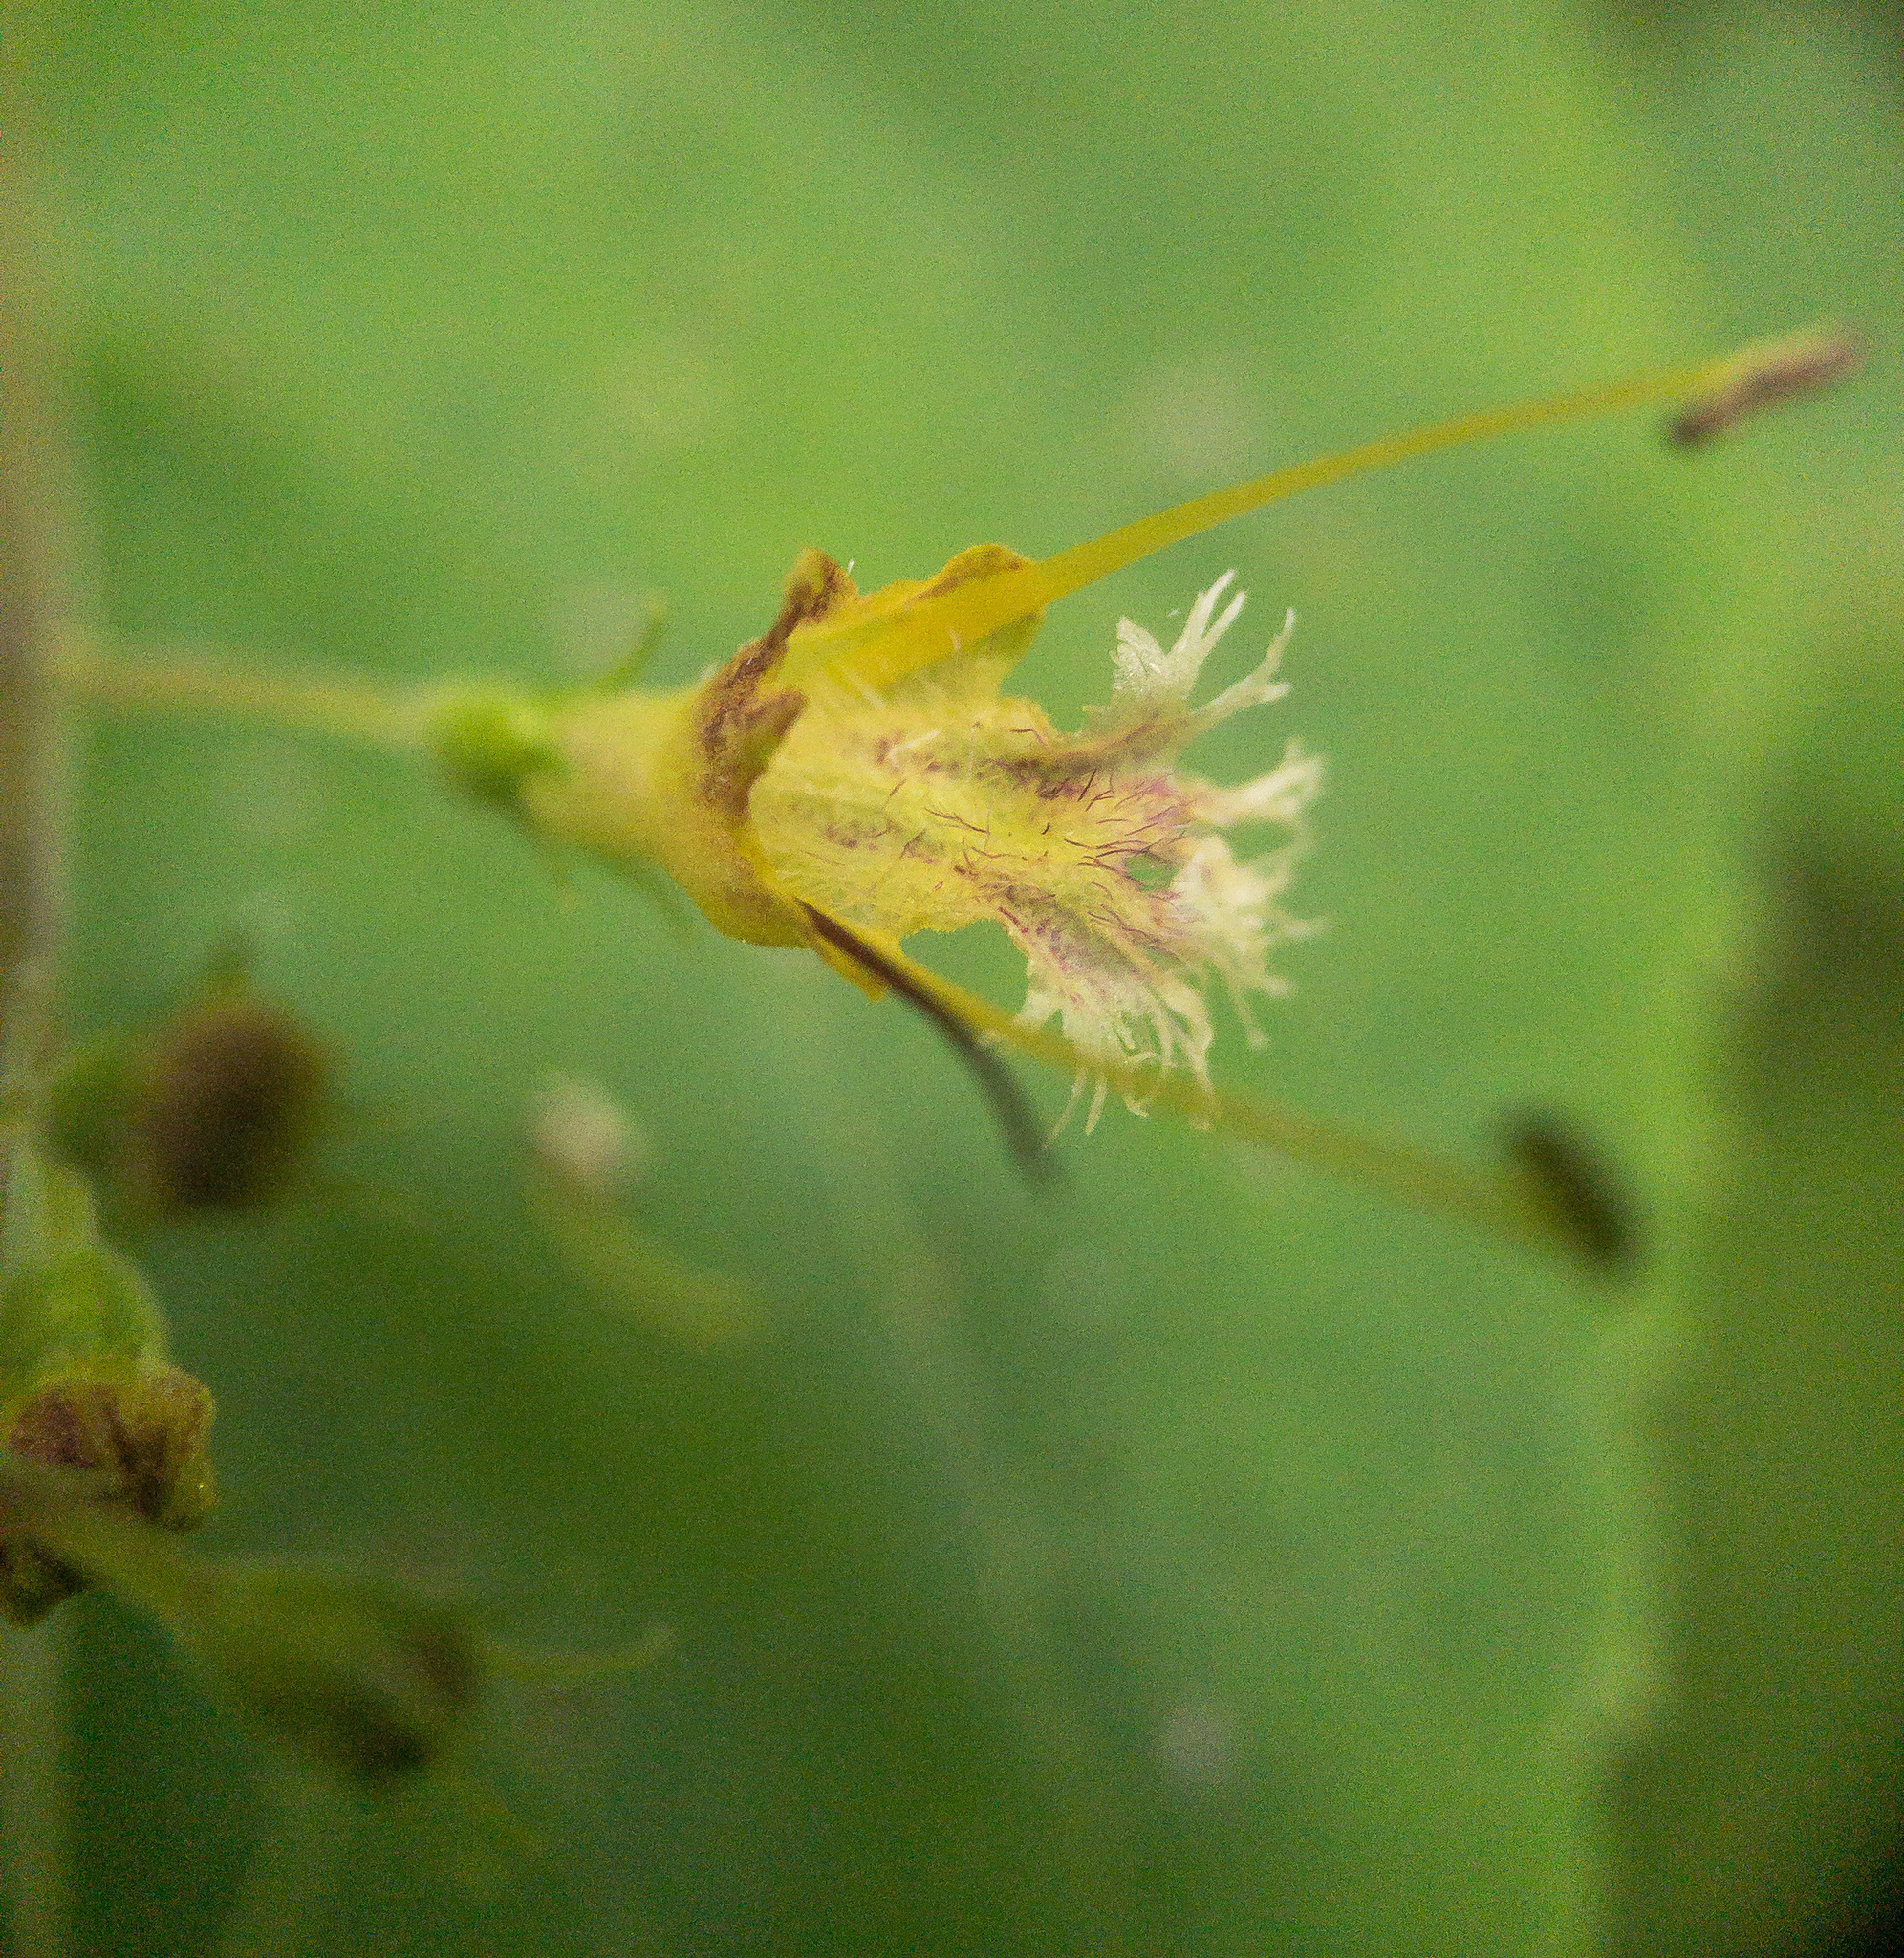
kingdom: Fungi
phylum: Basidiomycota
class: Agaricomycetes
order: Boletales
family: Boletaceae
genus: Aureoboletus
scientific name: Aureoboletus auriflammeus
